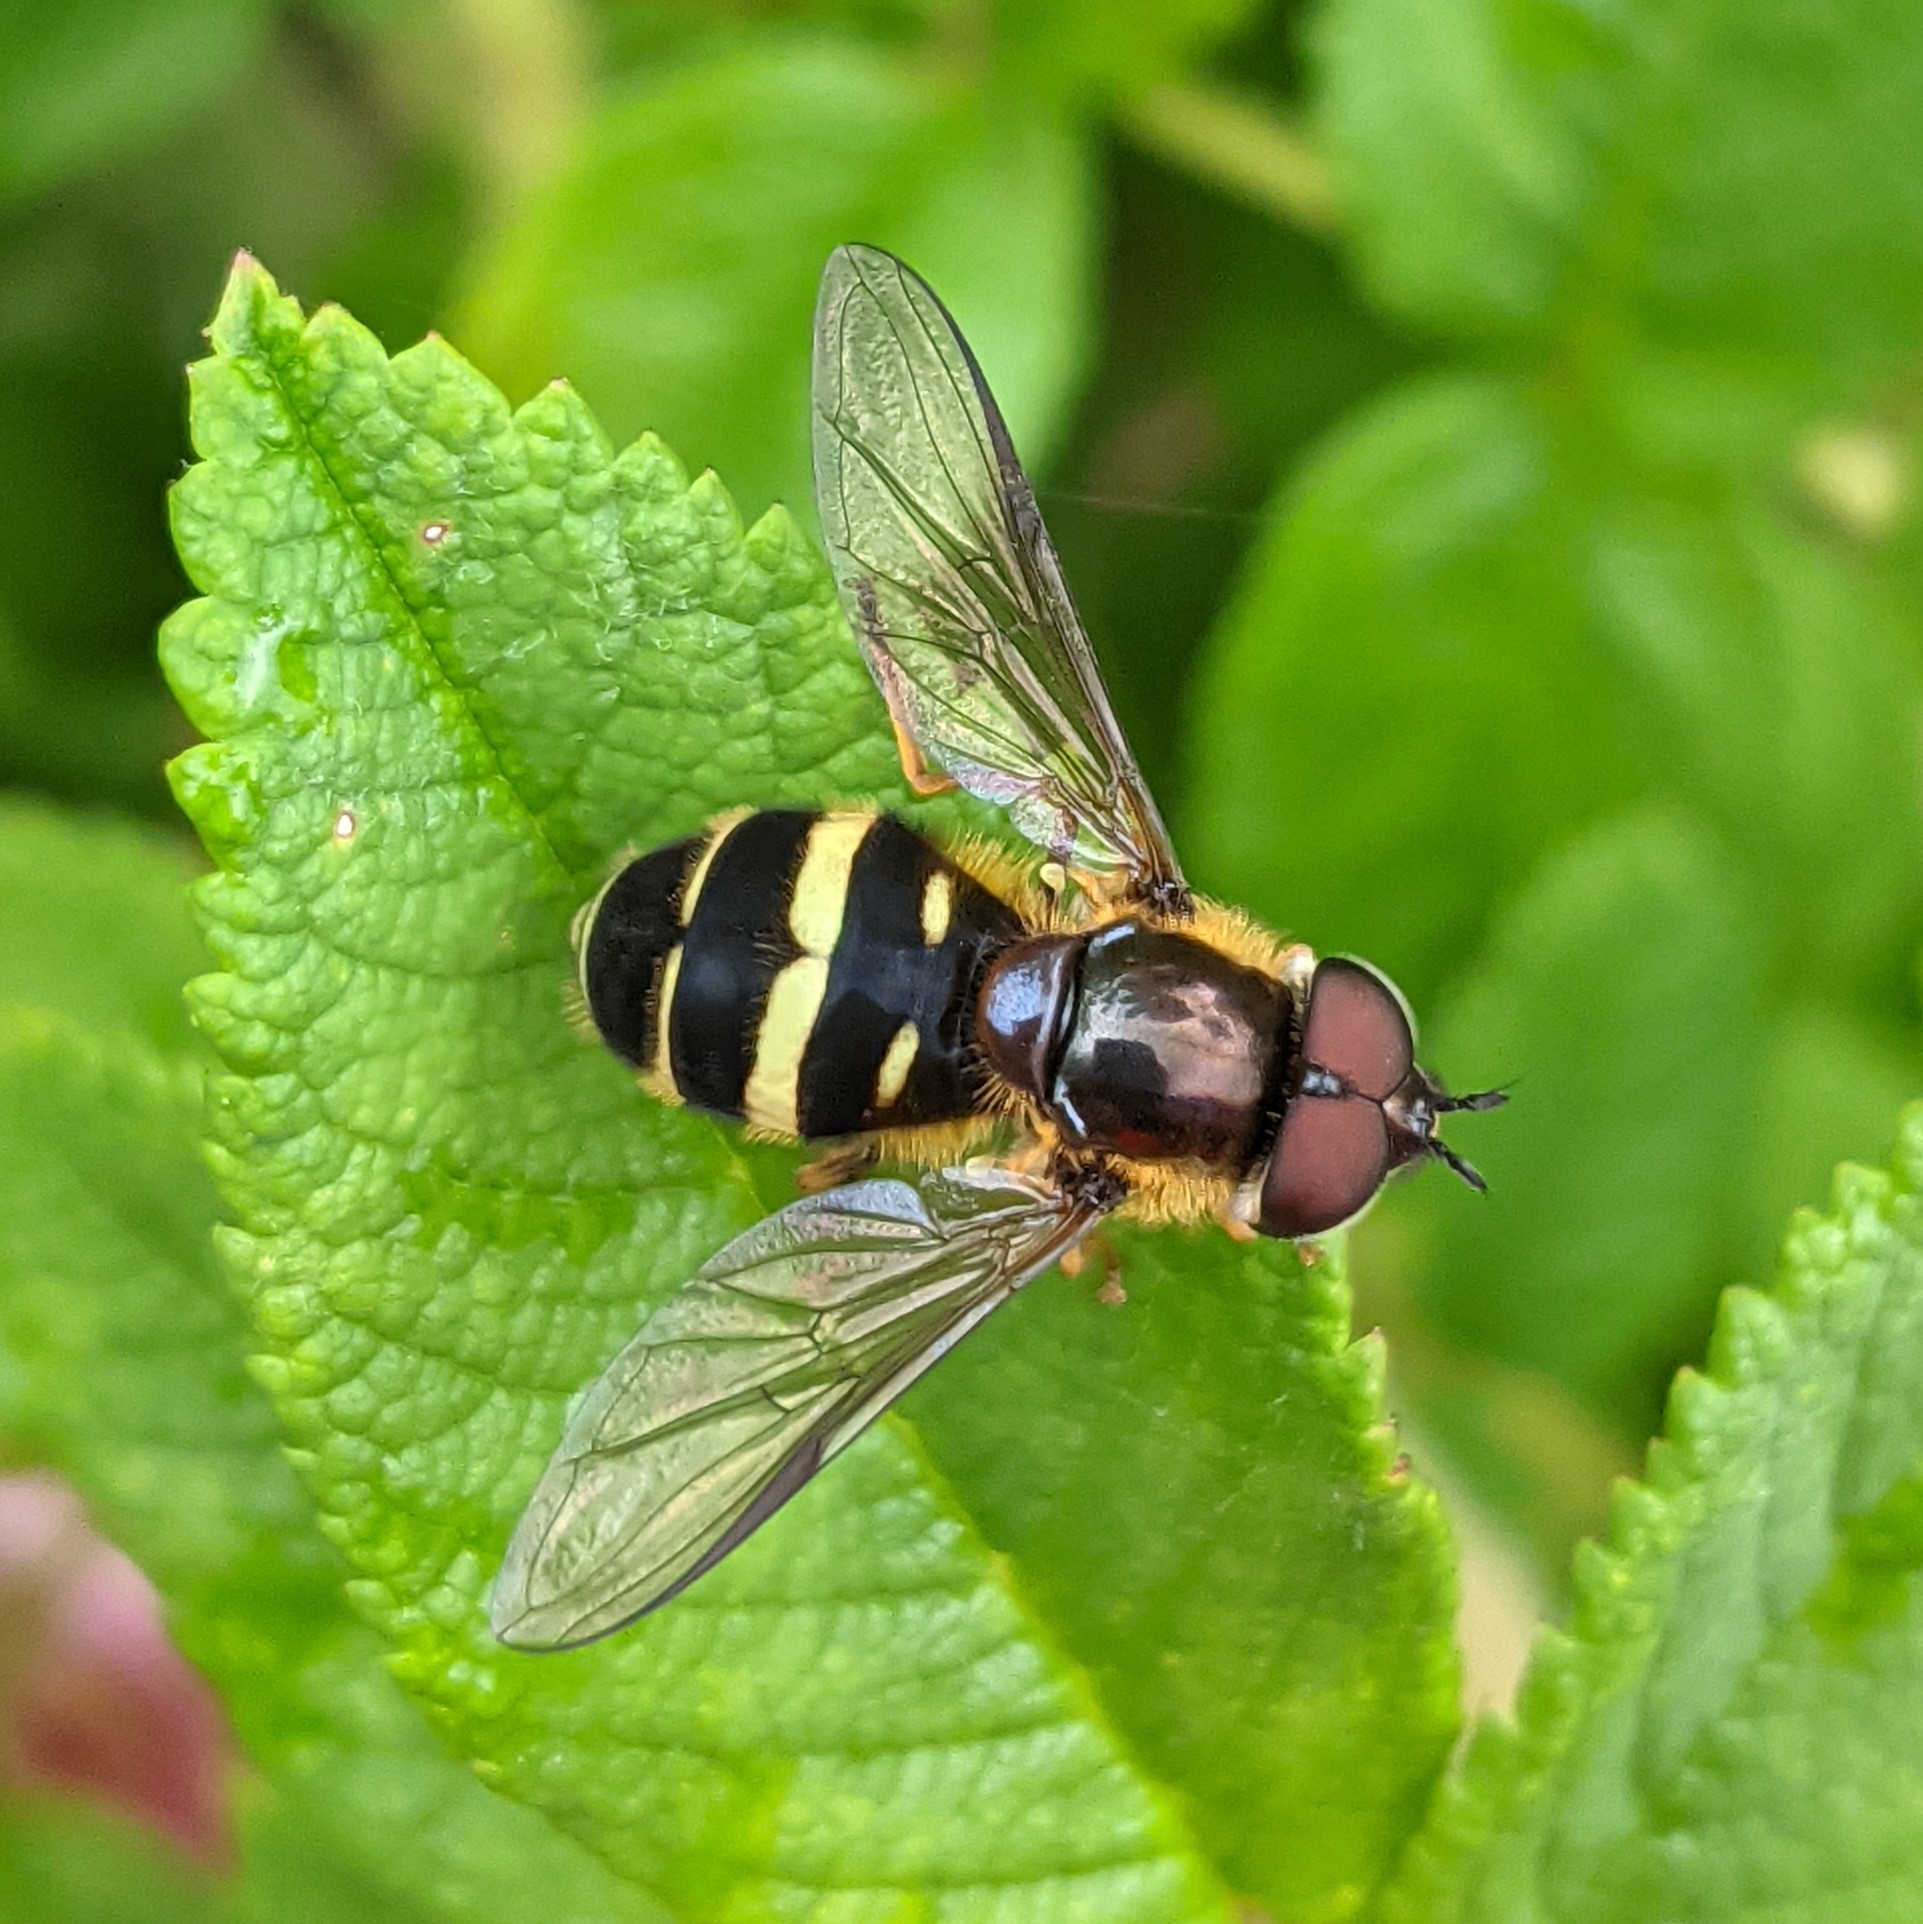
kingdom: Animalia
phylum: Arthropoda
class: Insecta
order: Diptera
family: Syrphidae
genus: Dasysyrphus
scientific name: Dasysyrphus tricinctus
